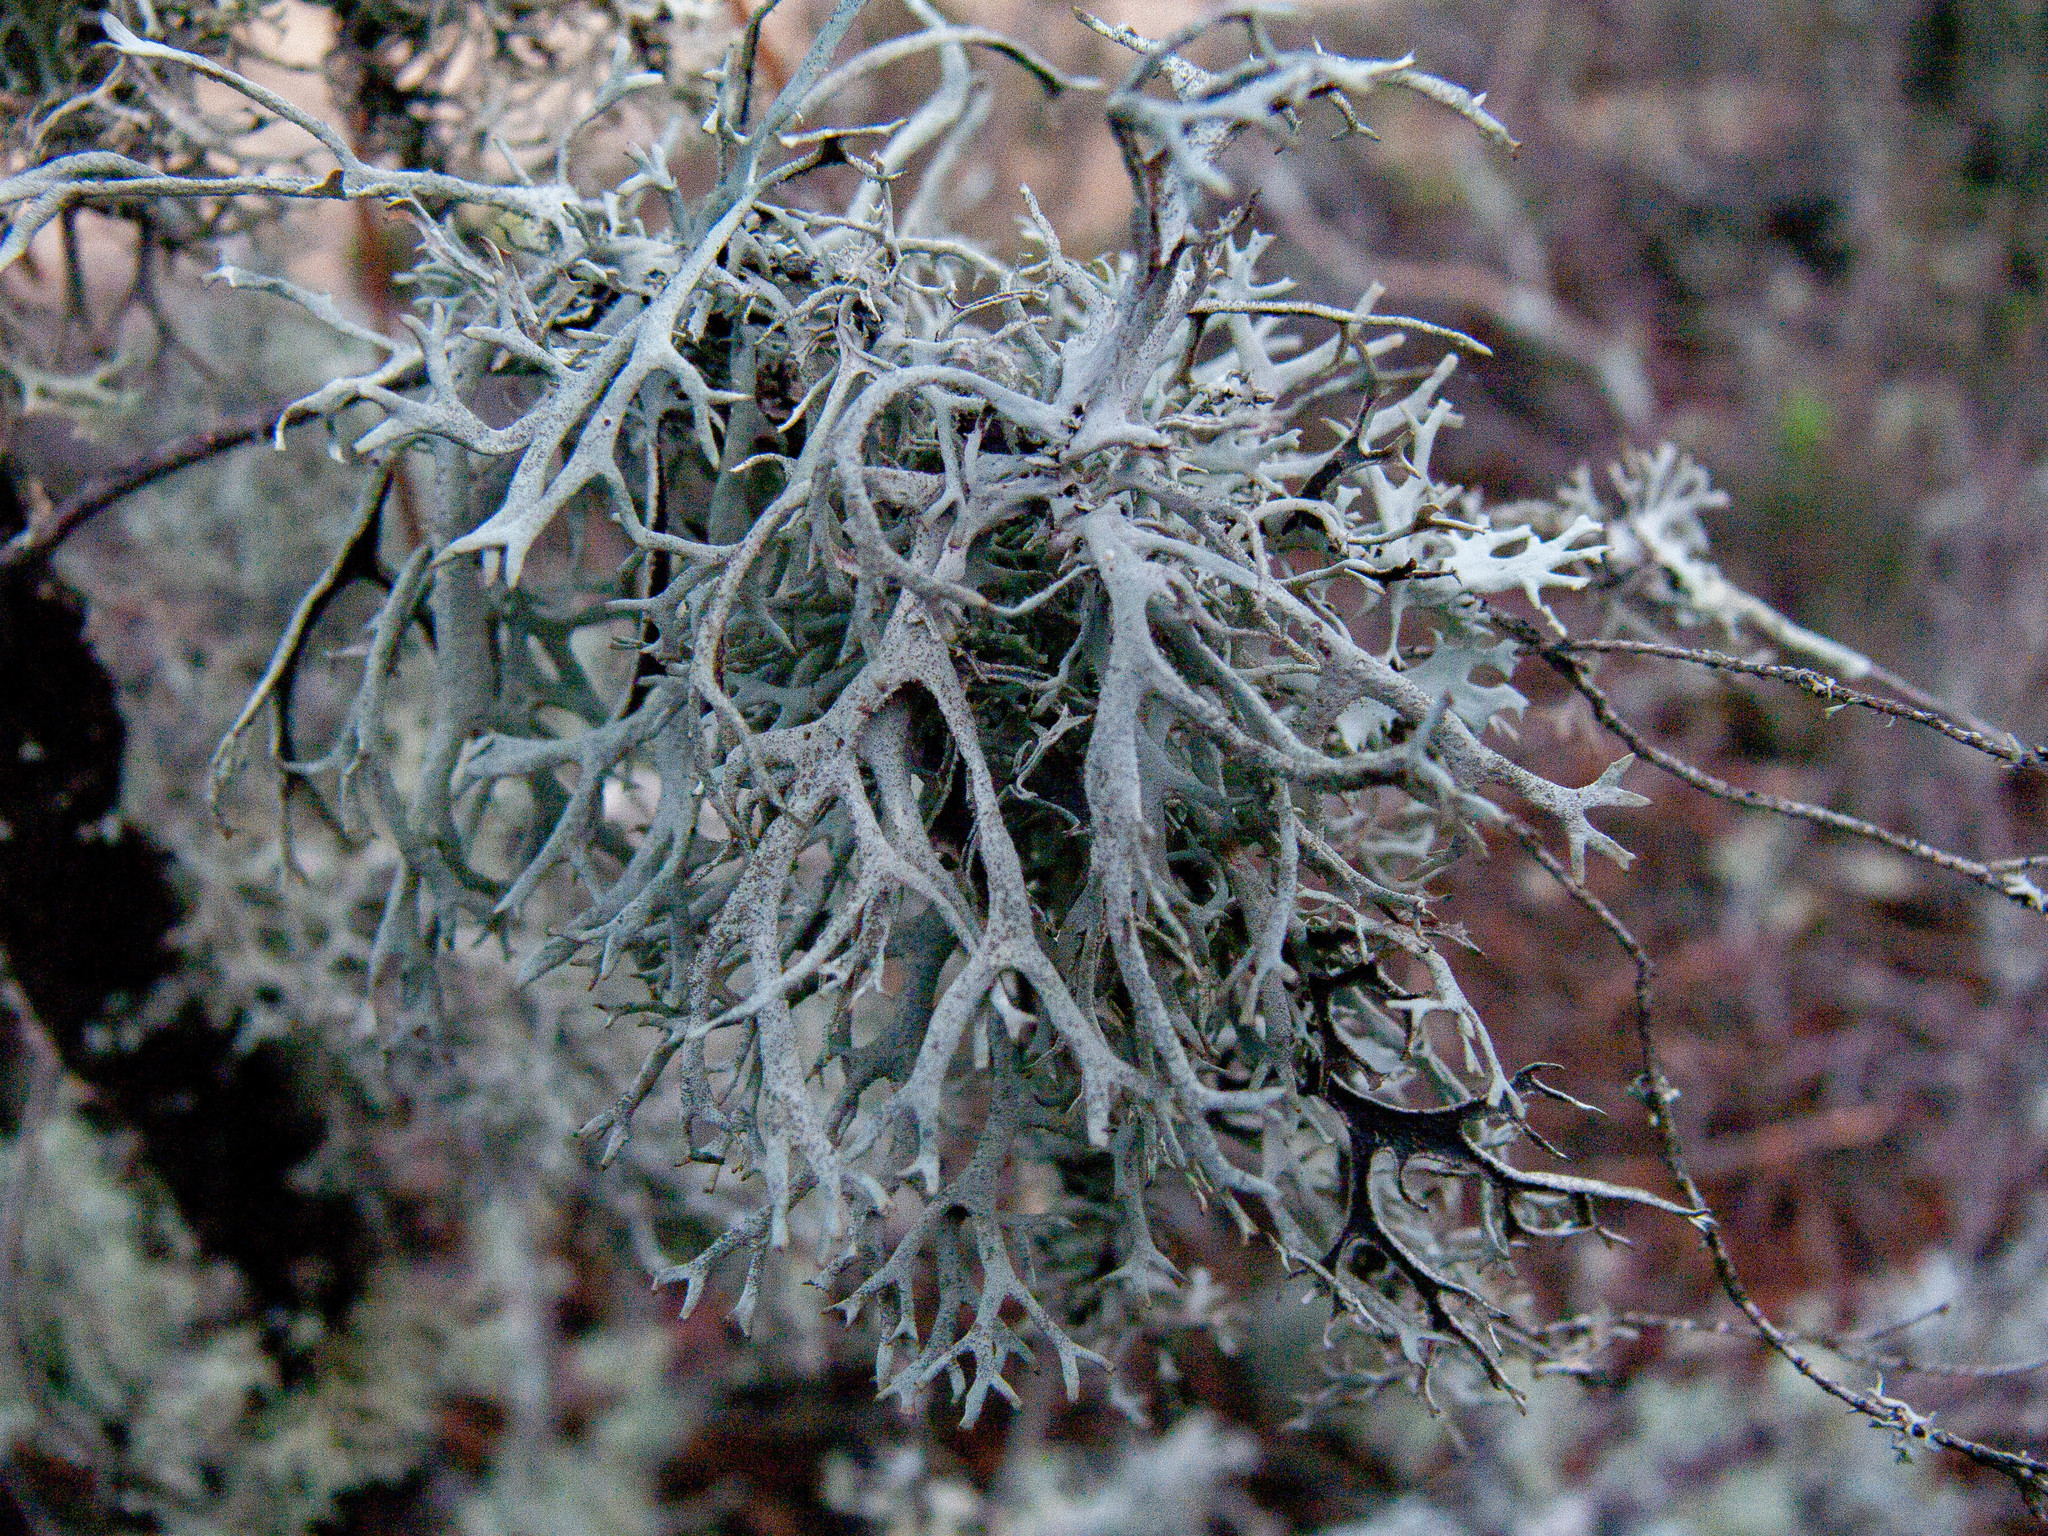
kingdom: Fungi
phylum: Ascomycota
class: Lecanoromycetes
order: Lecanorales
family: Parmeliaceae
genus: Pseudevernia
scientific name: Pseudevernia furfuracea
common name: Tree moss
